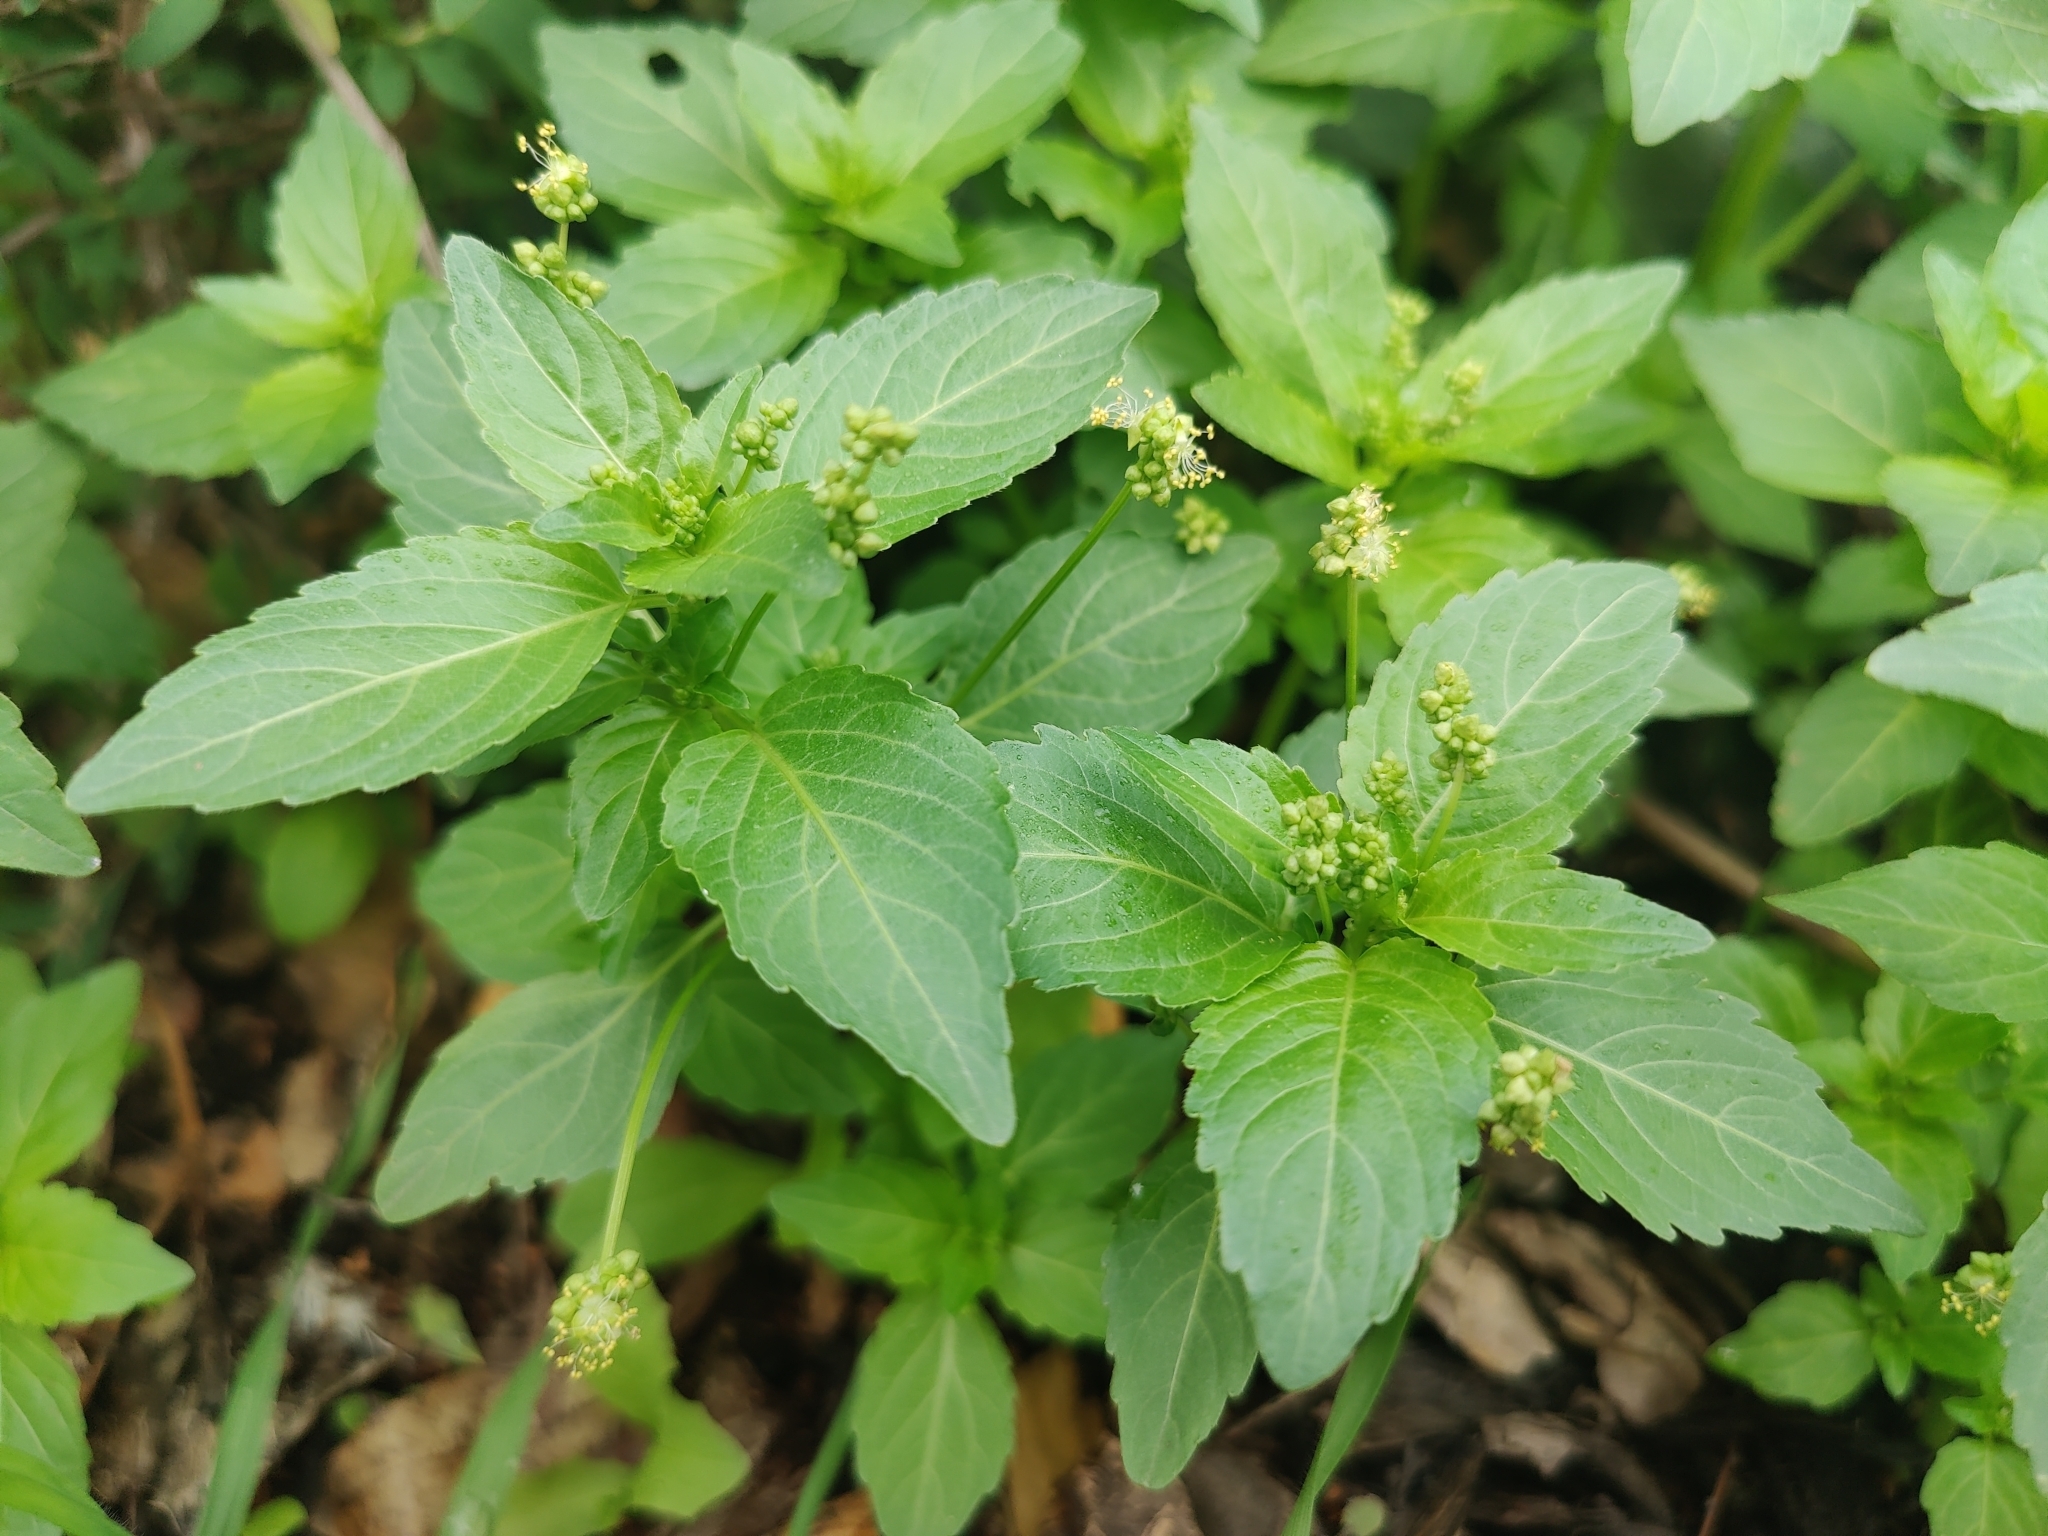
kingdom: Plantae
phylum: Tracheophyta
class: Magnoliopsida
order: Malpighiales
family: Euphorbiaceae
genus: Mercurialis
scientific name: Mercurialis annua
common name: Annual mercury
